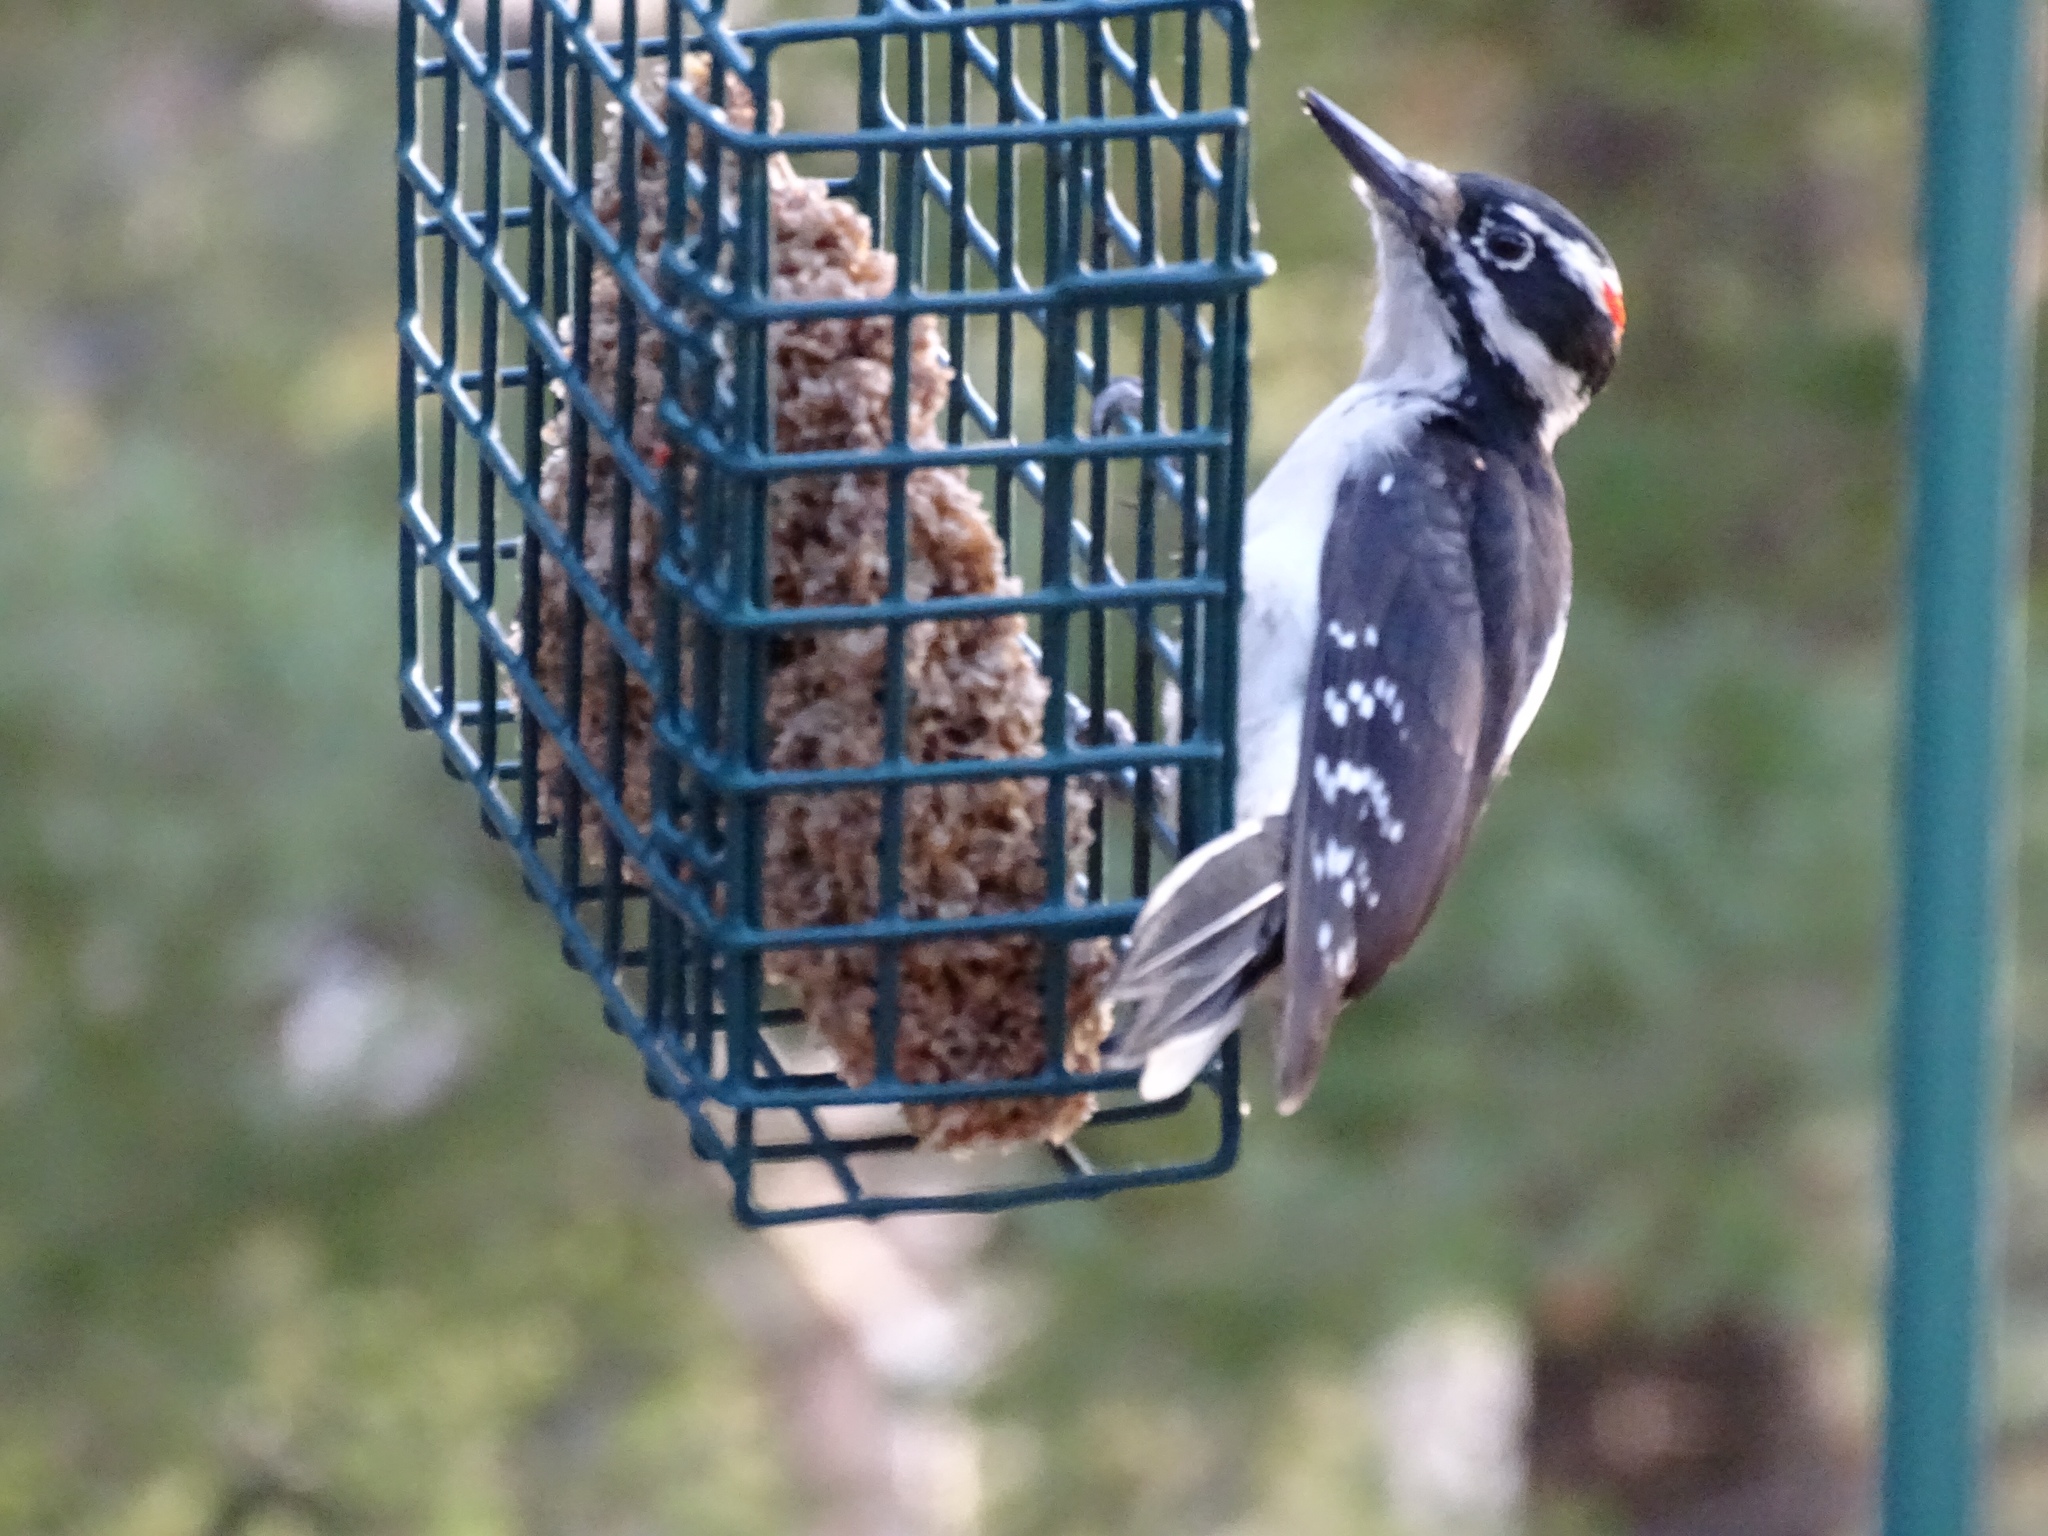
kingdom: Animalia
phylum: Chordata
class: Aves
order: Piciformes
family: Picidae
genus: Leuconotopicus
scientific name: Leuconotopicus villosus
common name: Hairy woodpecker
